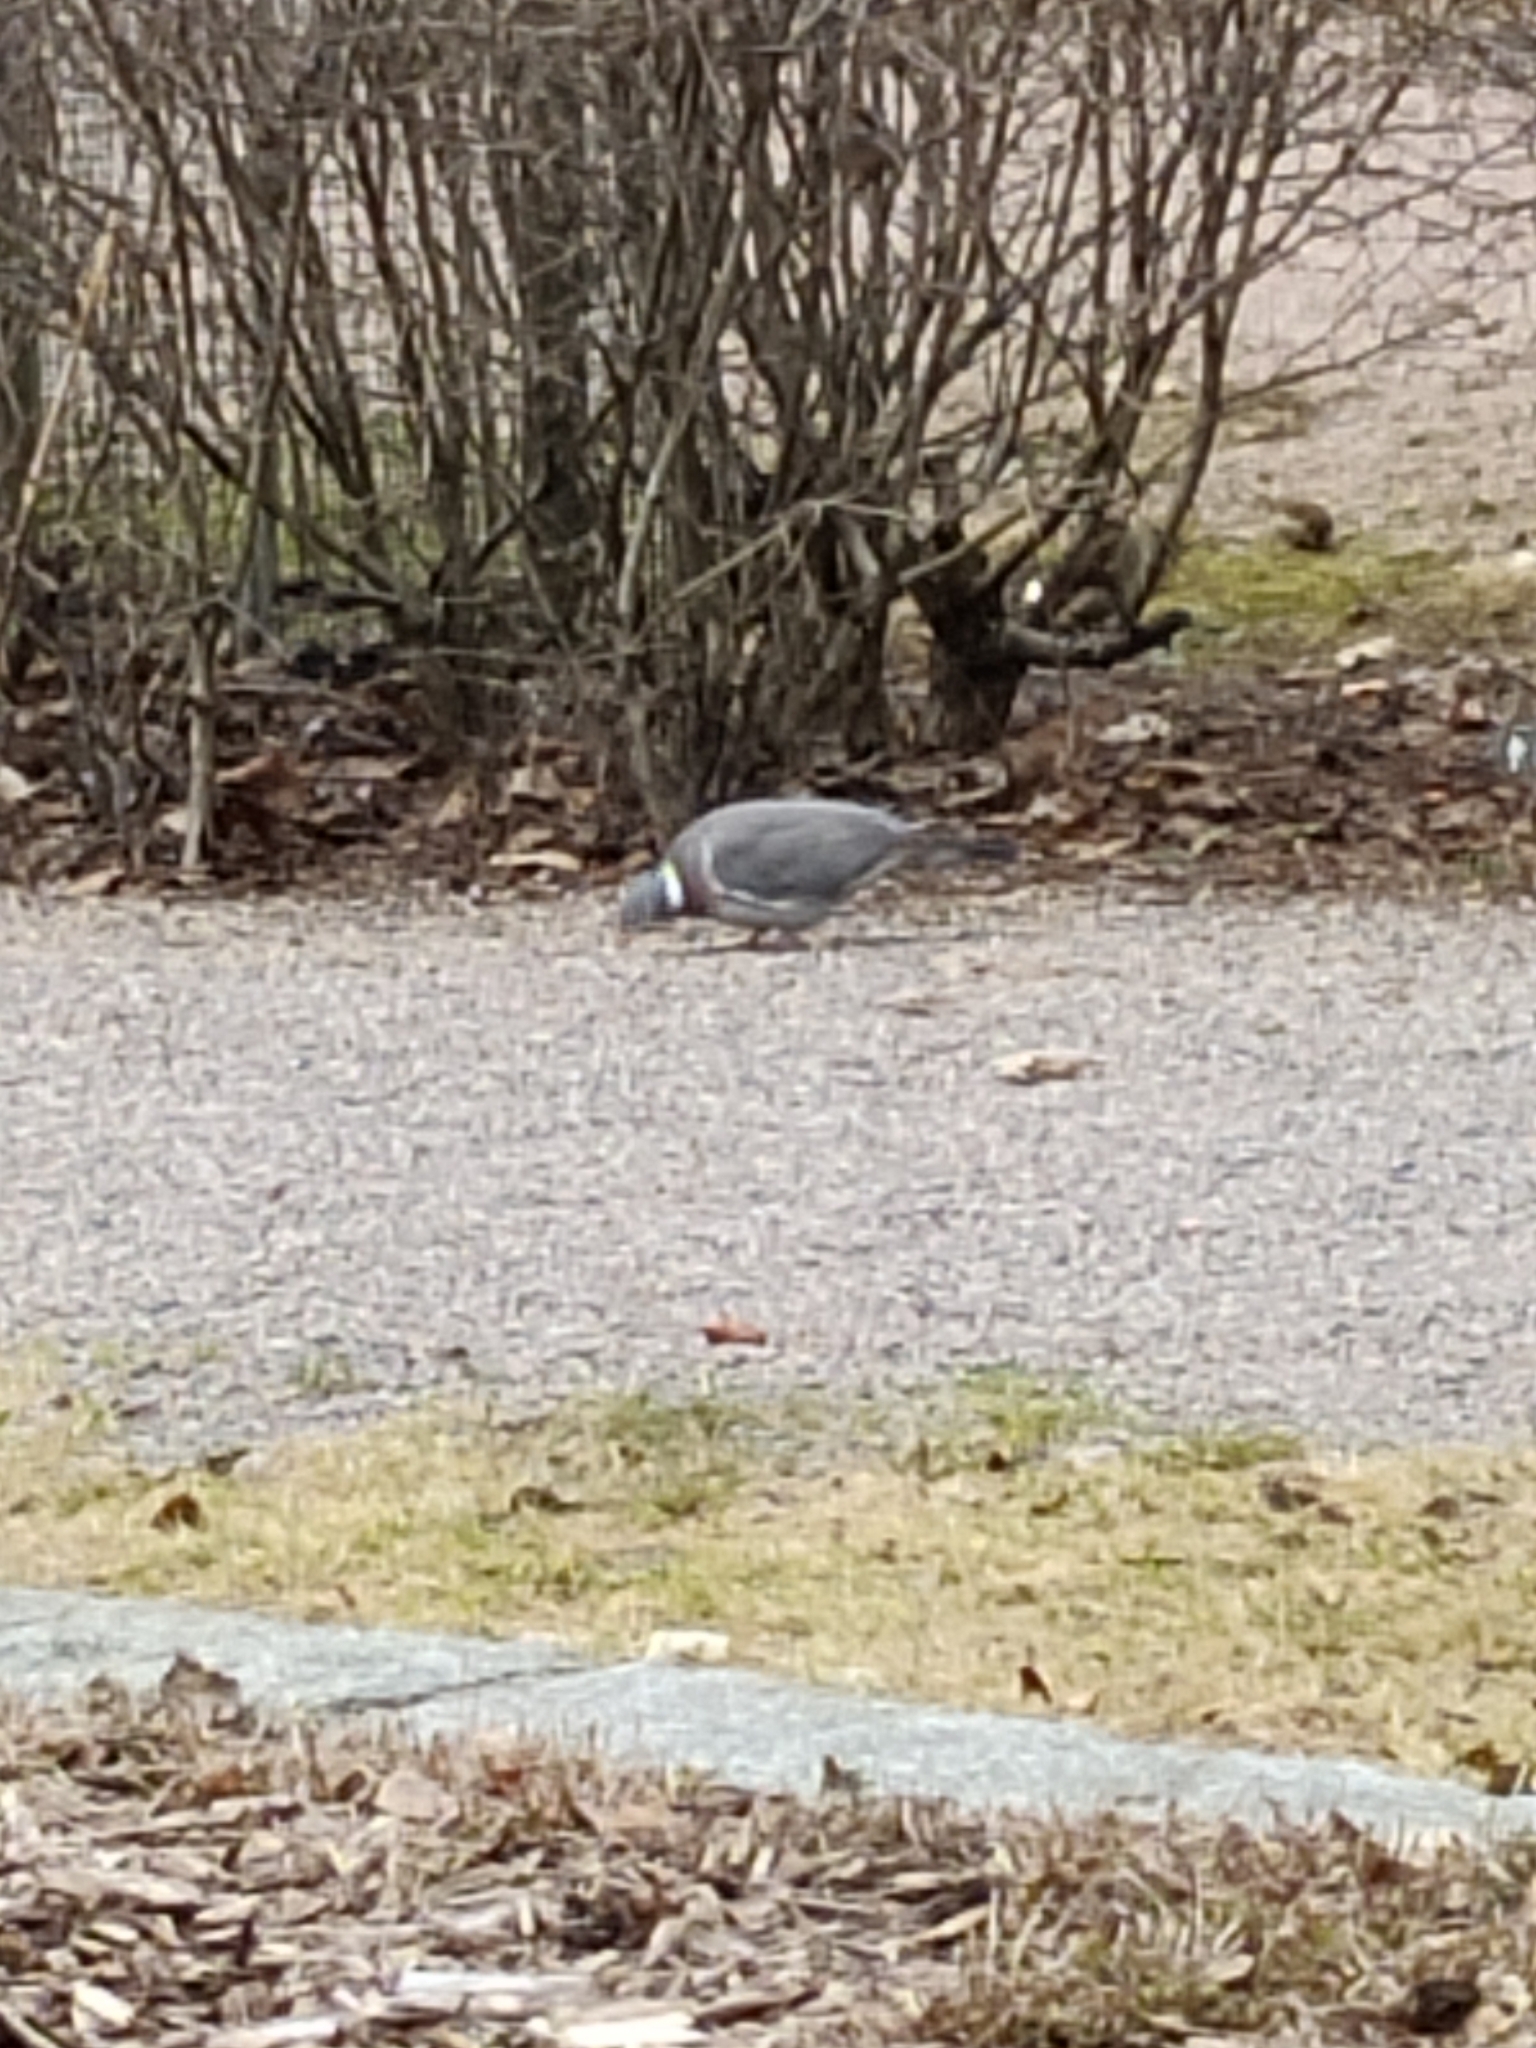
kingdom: Animalia
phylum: Chordata
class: Aves
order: Columbiformes
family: Columbidae
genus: Columba
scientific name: Columba palumbus
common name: Common wood pigeon
